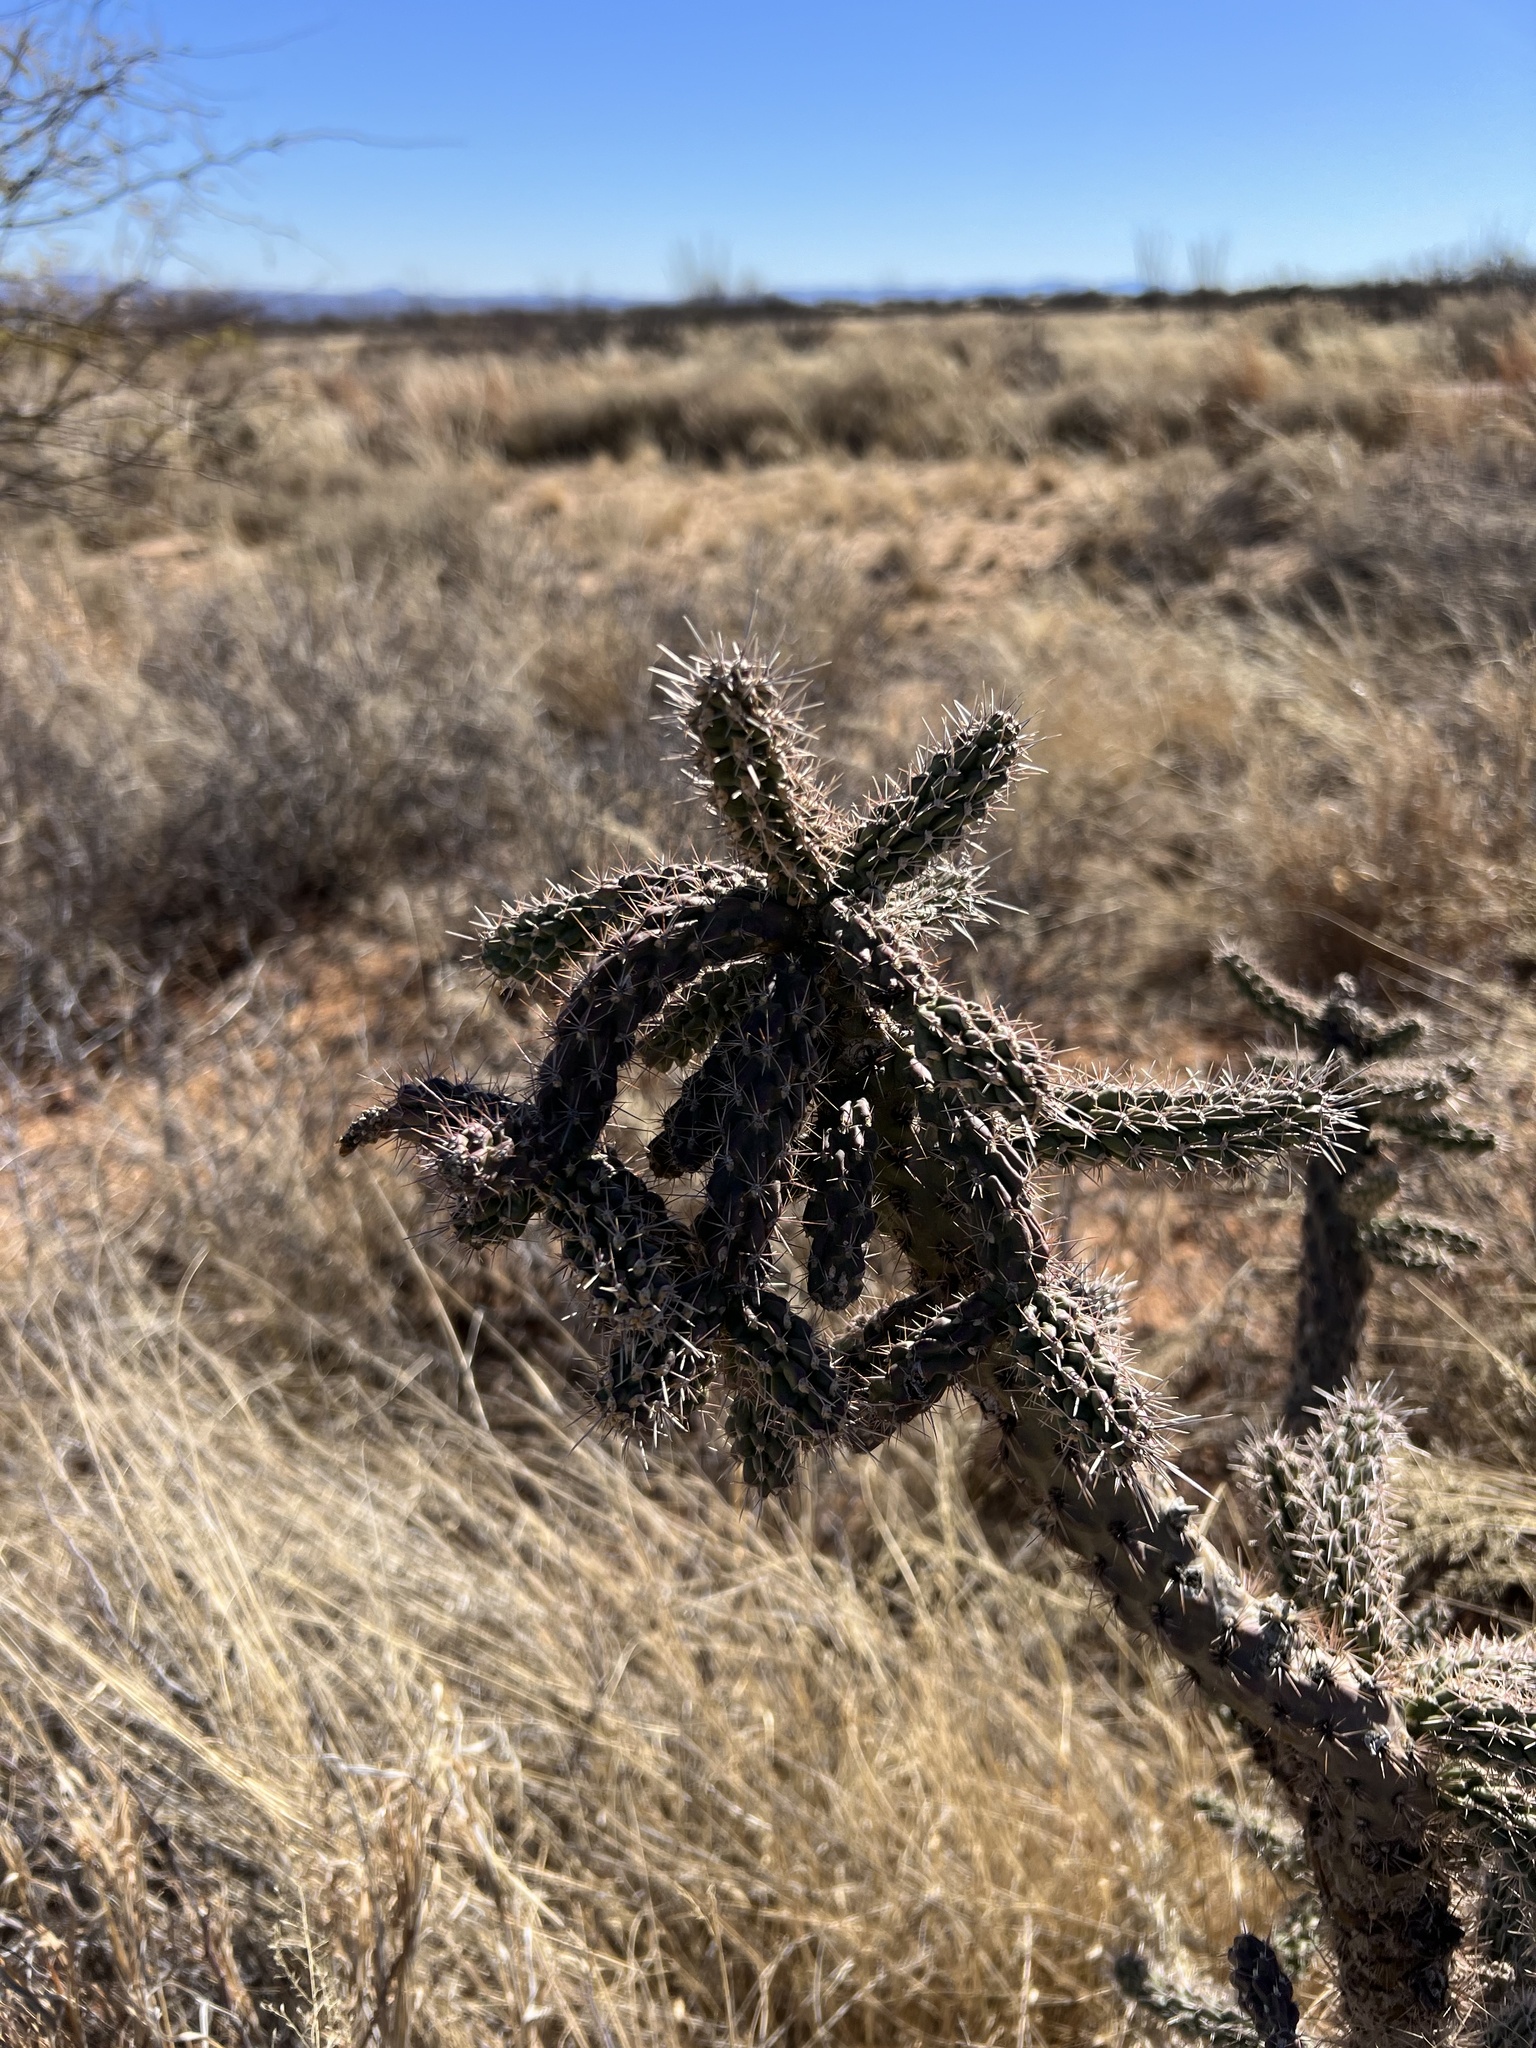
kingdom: Plantae
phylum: Tracheophyta
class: Magnoliopsida
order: Caryophyllales
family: Cactaceae
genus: Cylindropuntia
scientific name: Cylindropuntia imbricata
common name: Candelabrum cactus
